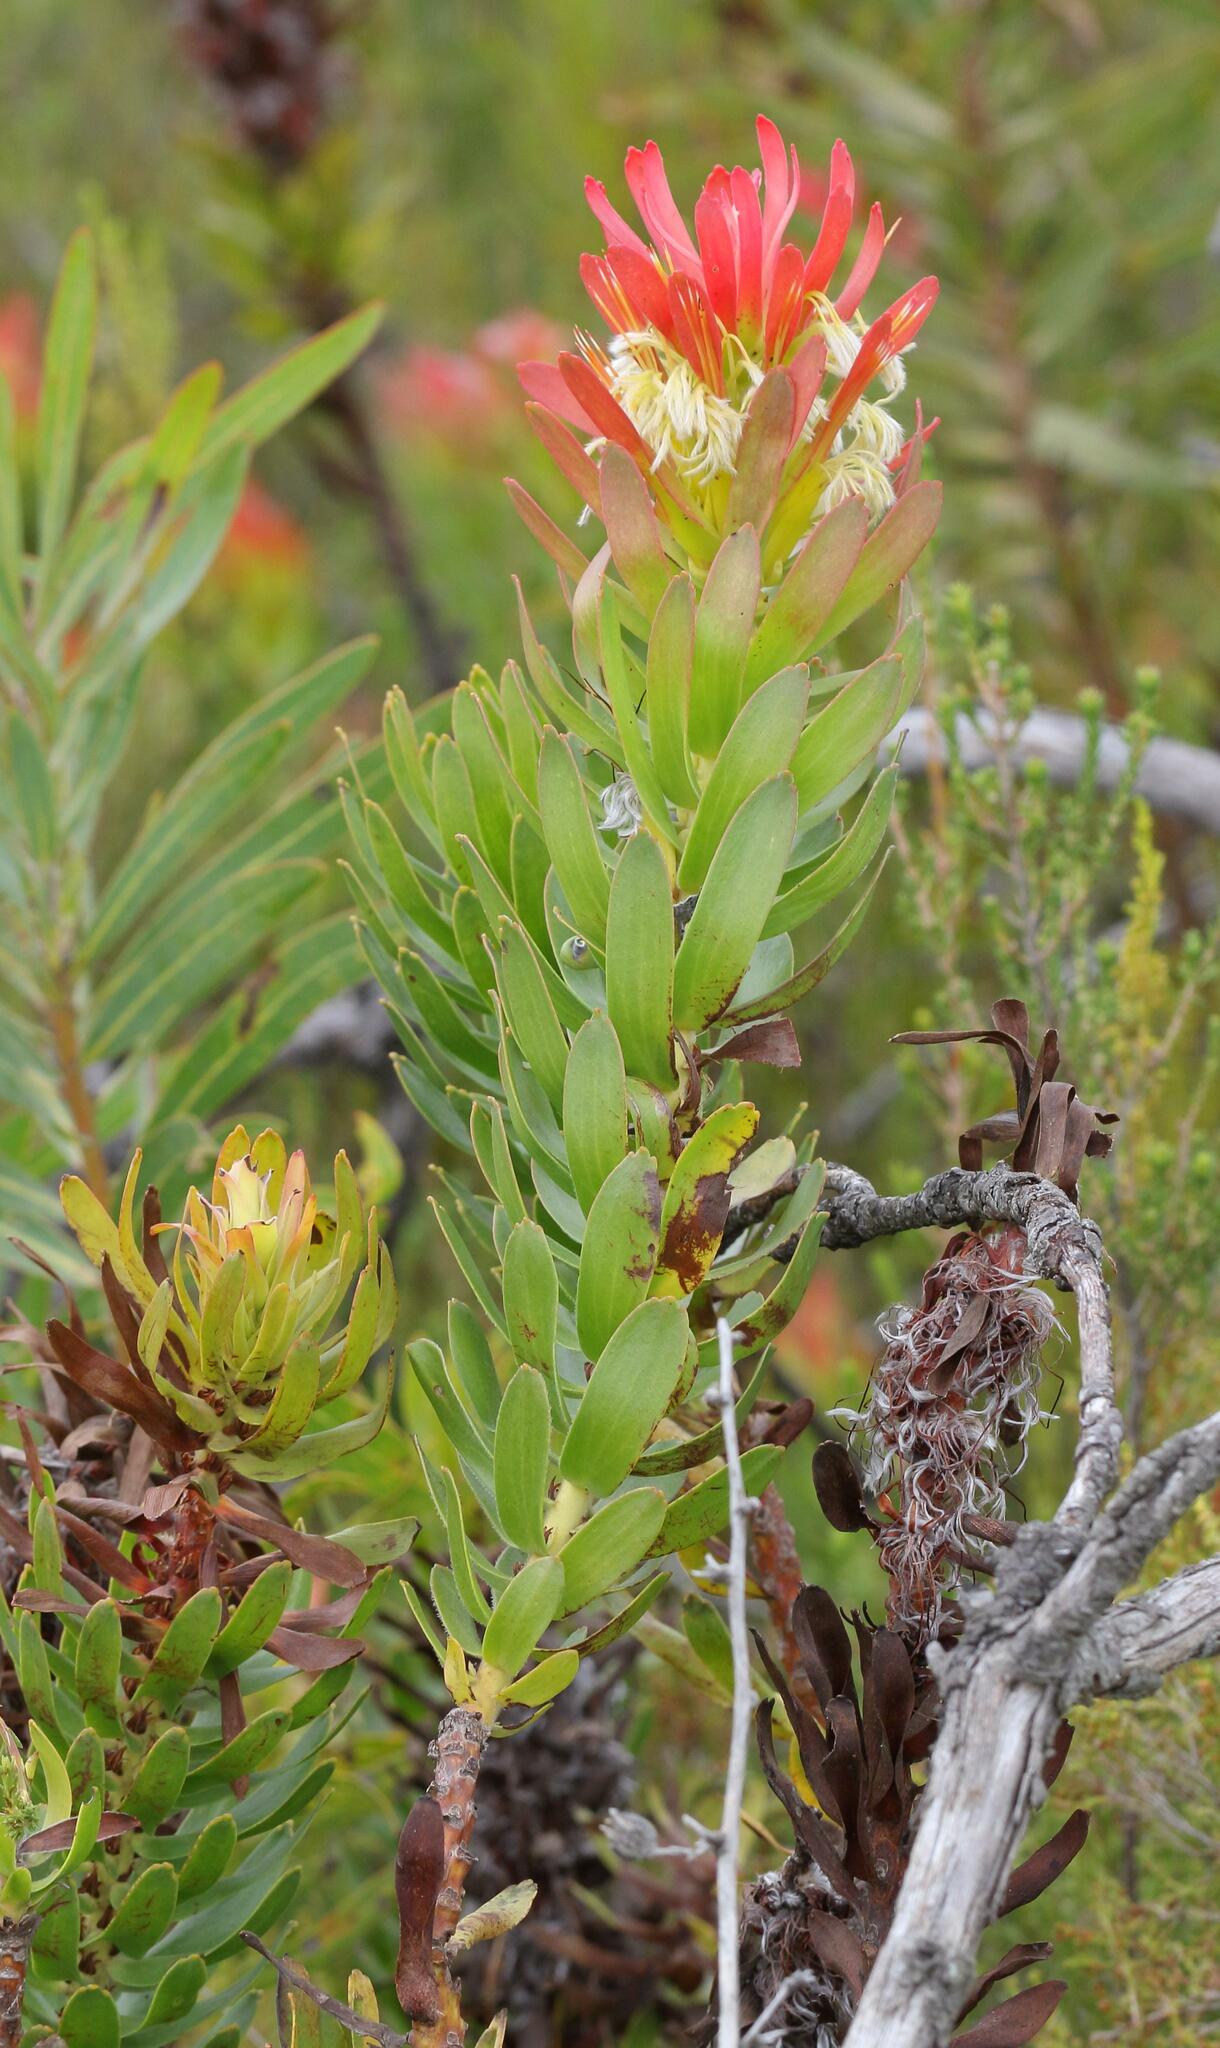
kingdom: Plantae
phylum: Tracheophyta
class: Magnoliopsida
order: Proteales
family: Proteaceae
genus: Mimetes
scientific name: Mimetes cucullatus
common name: Common pagoda
